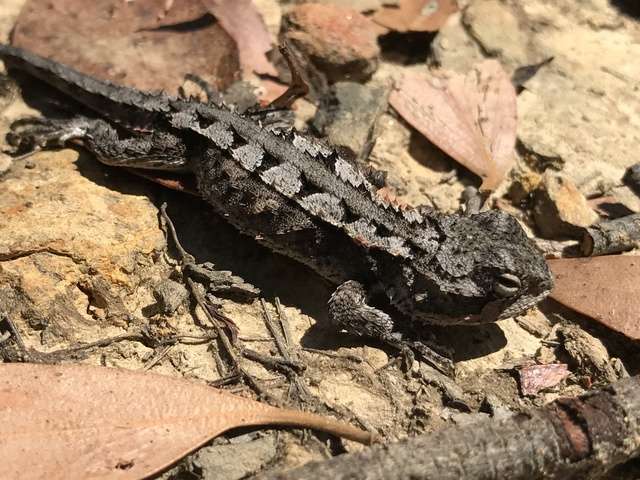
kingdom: Animalia
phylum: Chordata
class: Squamata
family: Agamidae
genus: Rankinia
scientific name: Rankinia diemensis
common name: Mountain dragon
